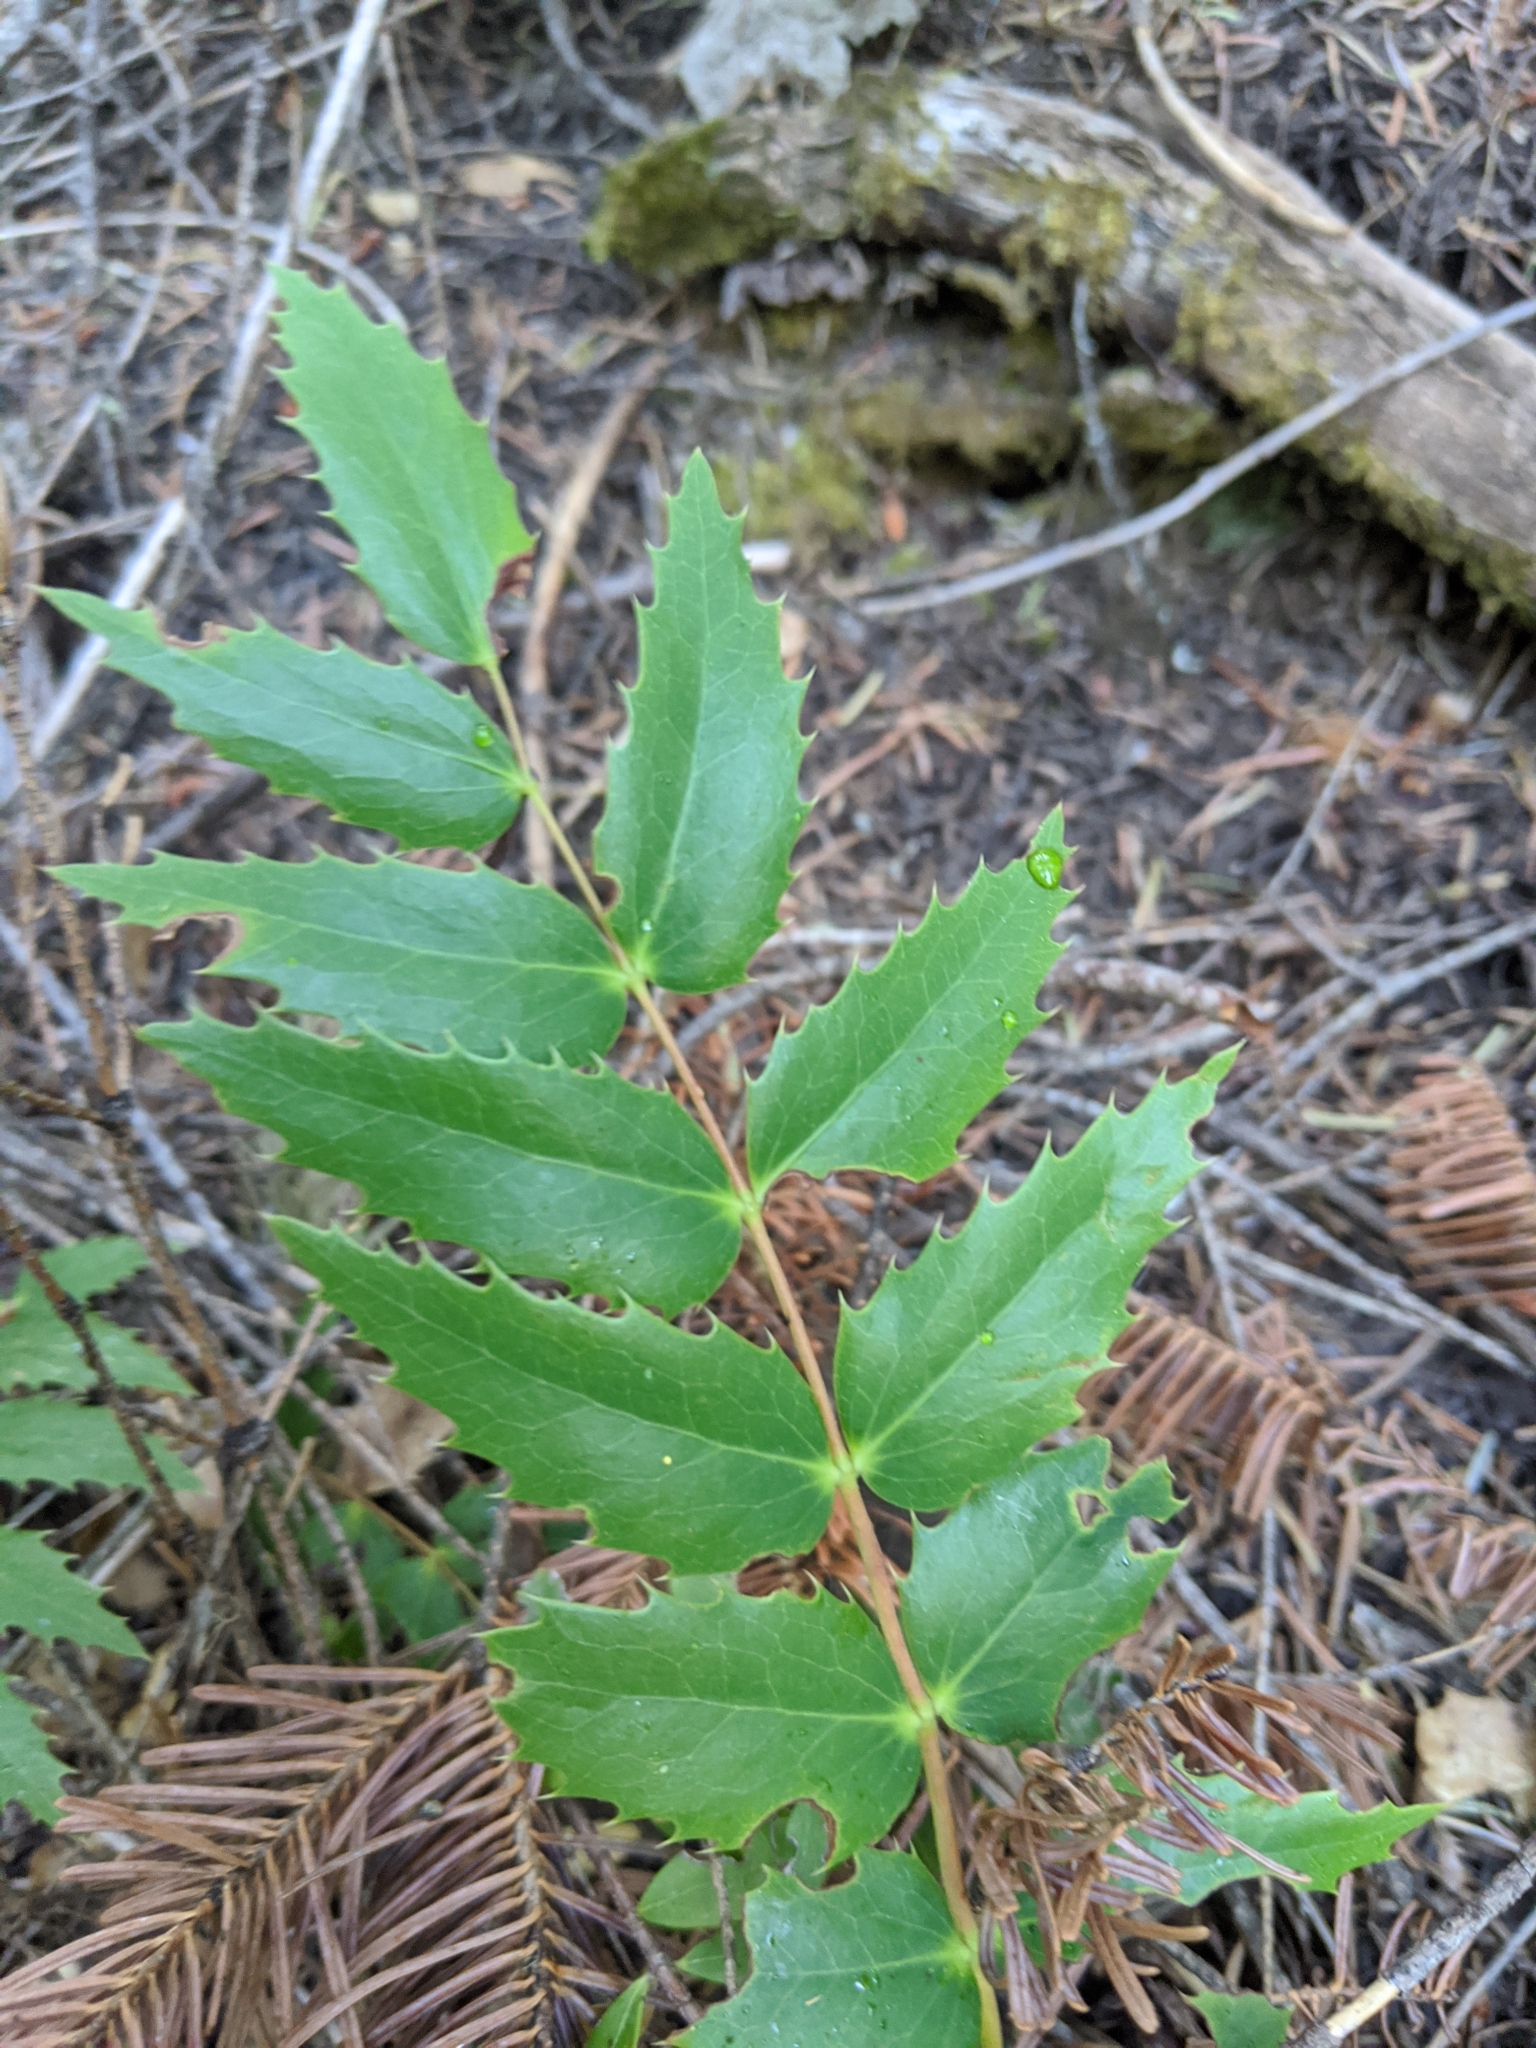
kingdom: Plantae
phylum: Tracheophyta
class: Magnoliopsida
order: Ranunculales
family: Berberidaceae
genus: Mahonia
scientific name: Mahonia nervosa
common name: Cascade oregon-grape
